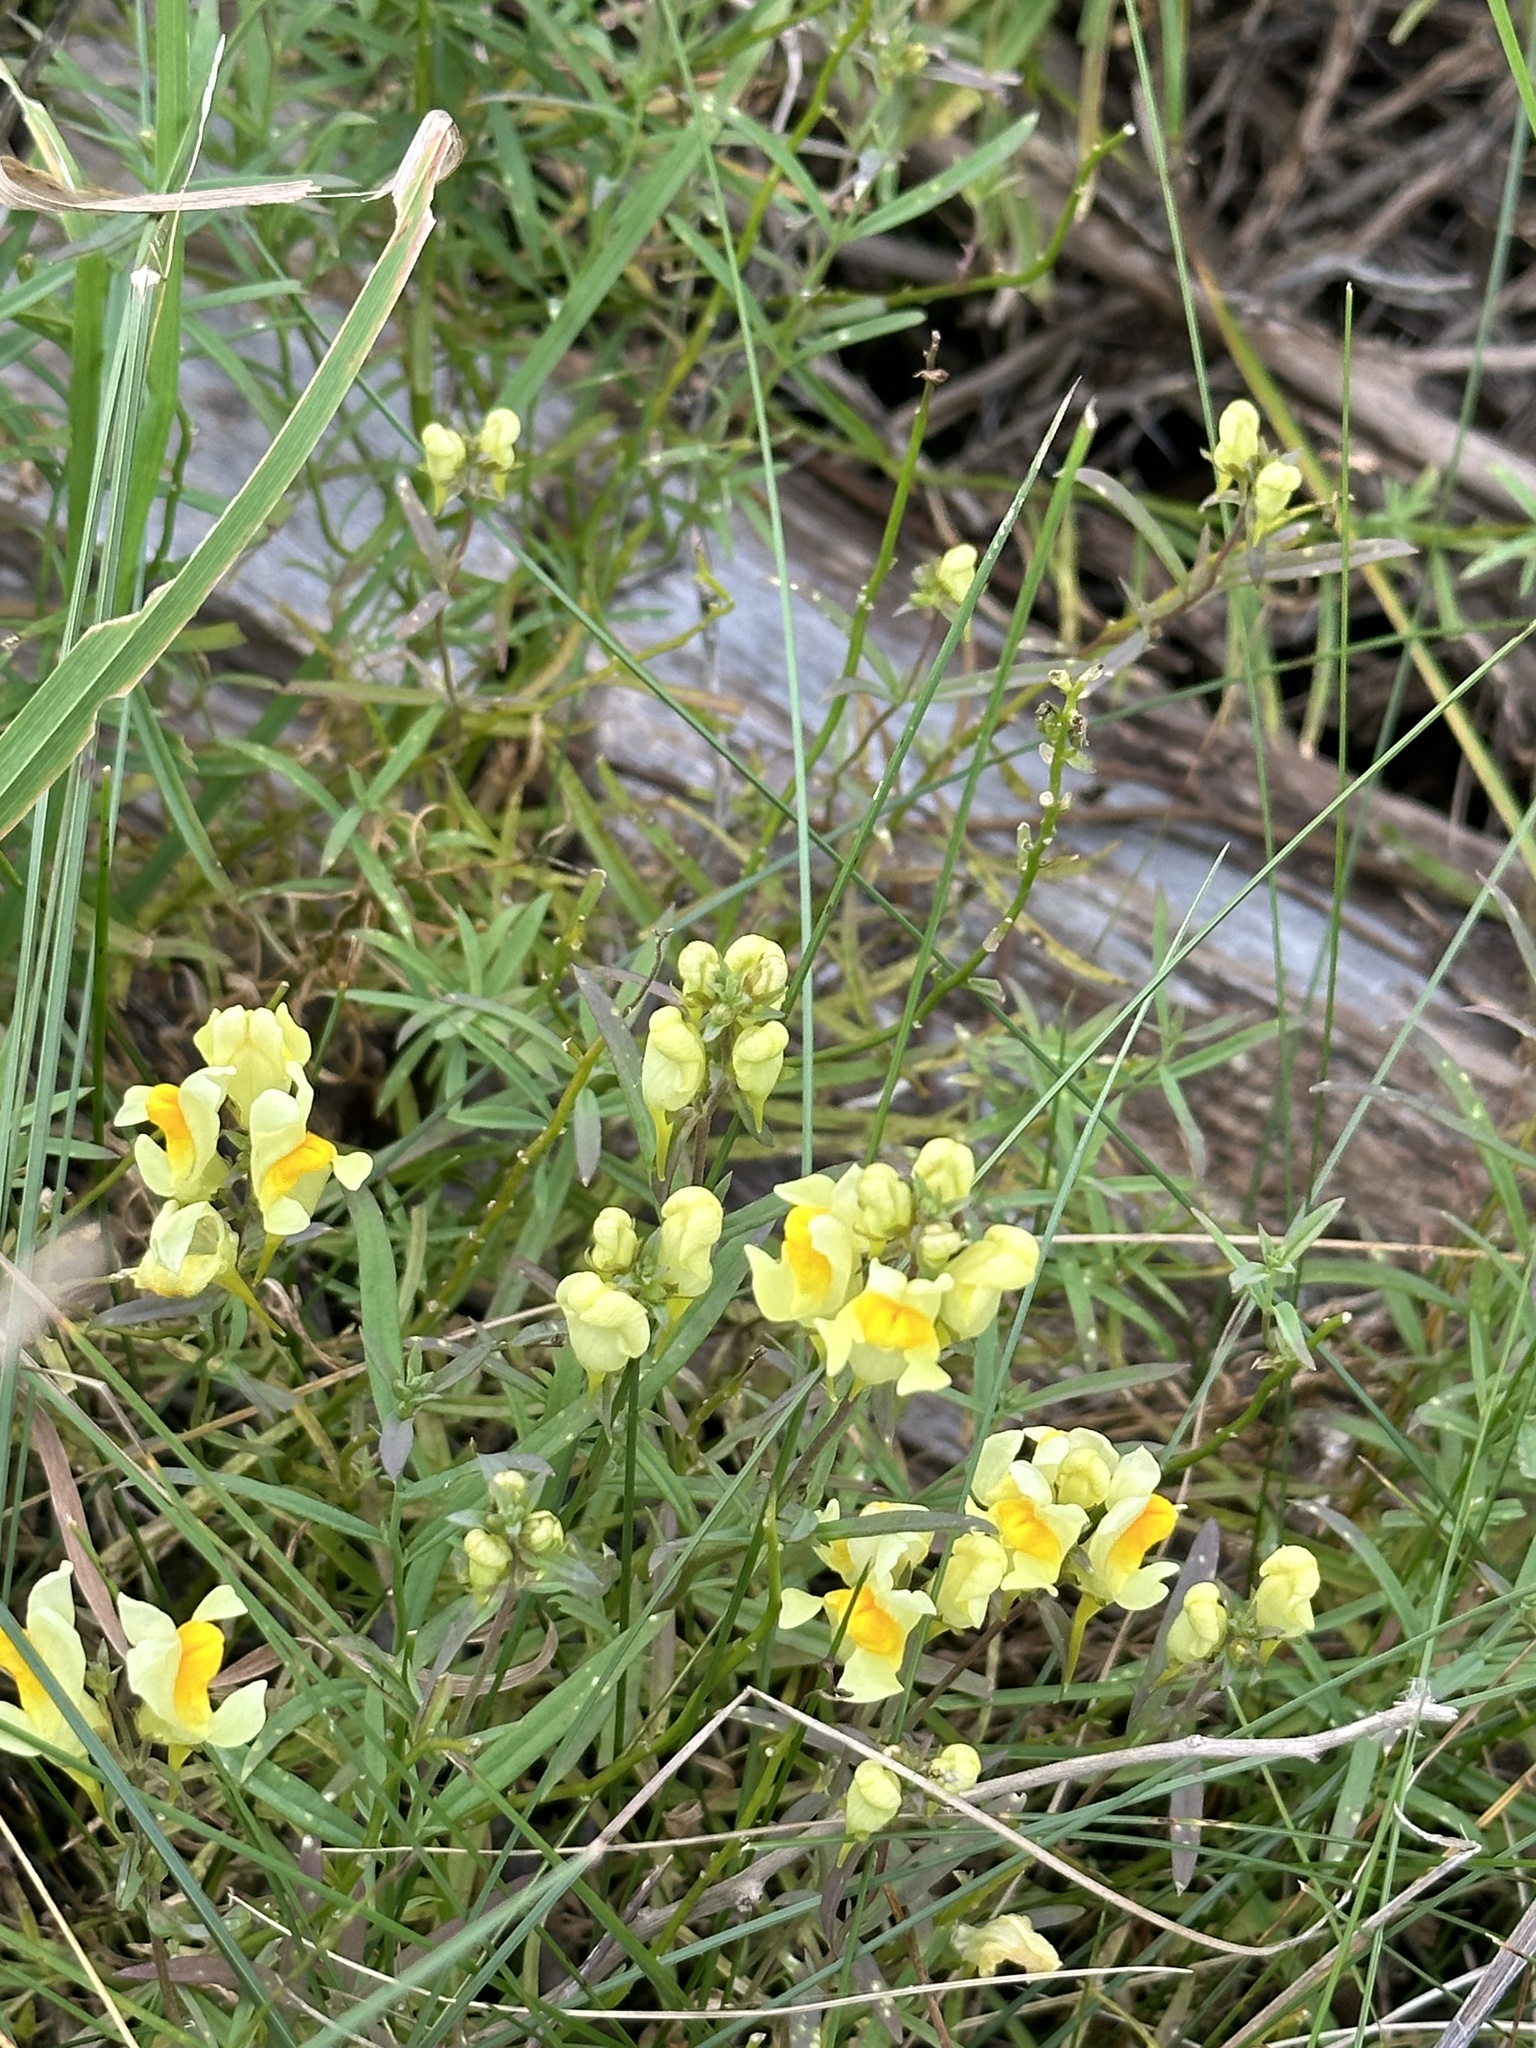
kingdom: Plantae
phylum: Tracheophyta
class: Magnoliopsida
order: Lamiales
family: Plantaginaceae
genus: Linaria
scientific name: Linaria vulgaris
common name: Butter and eggs
